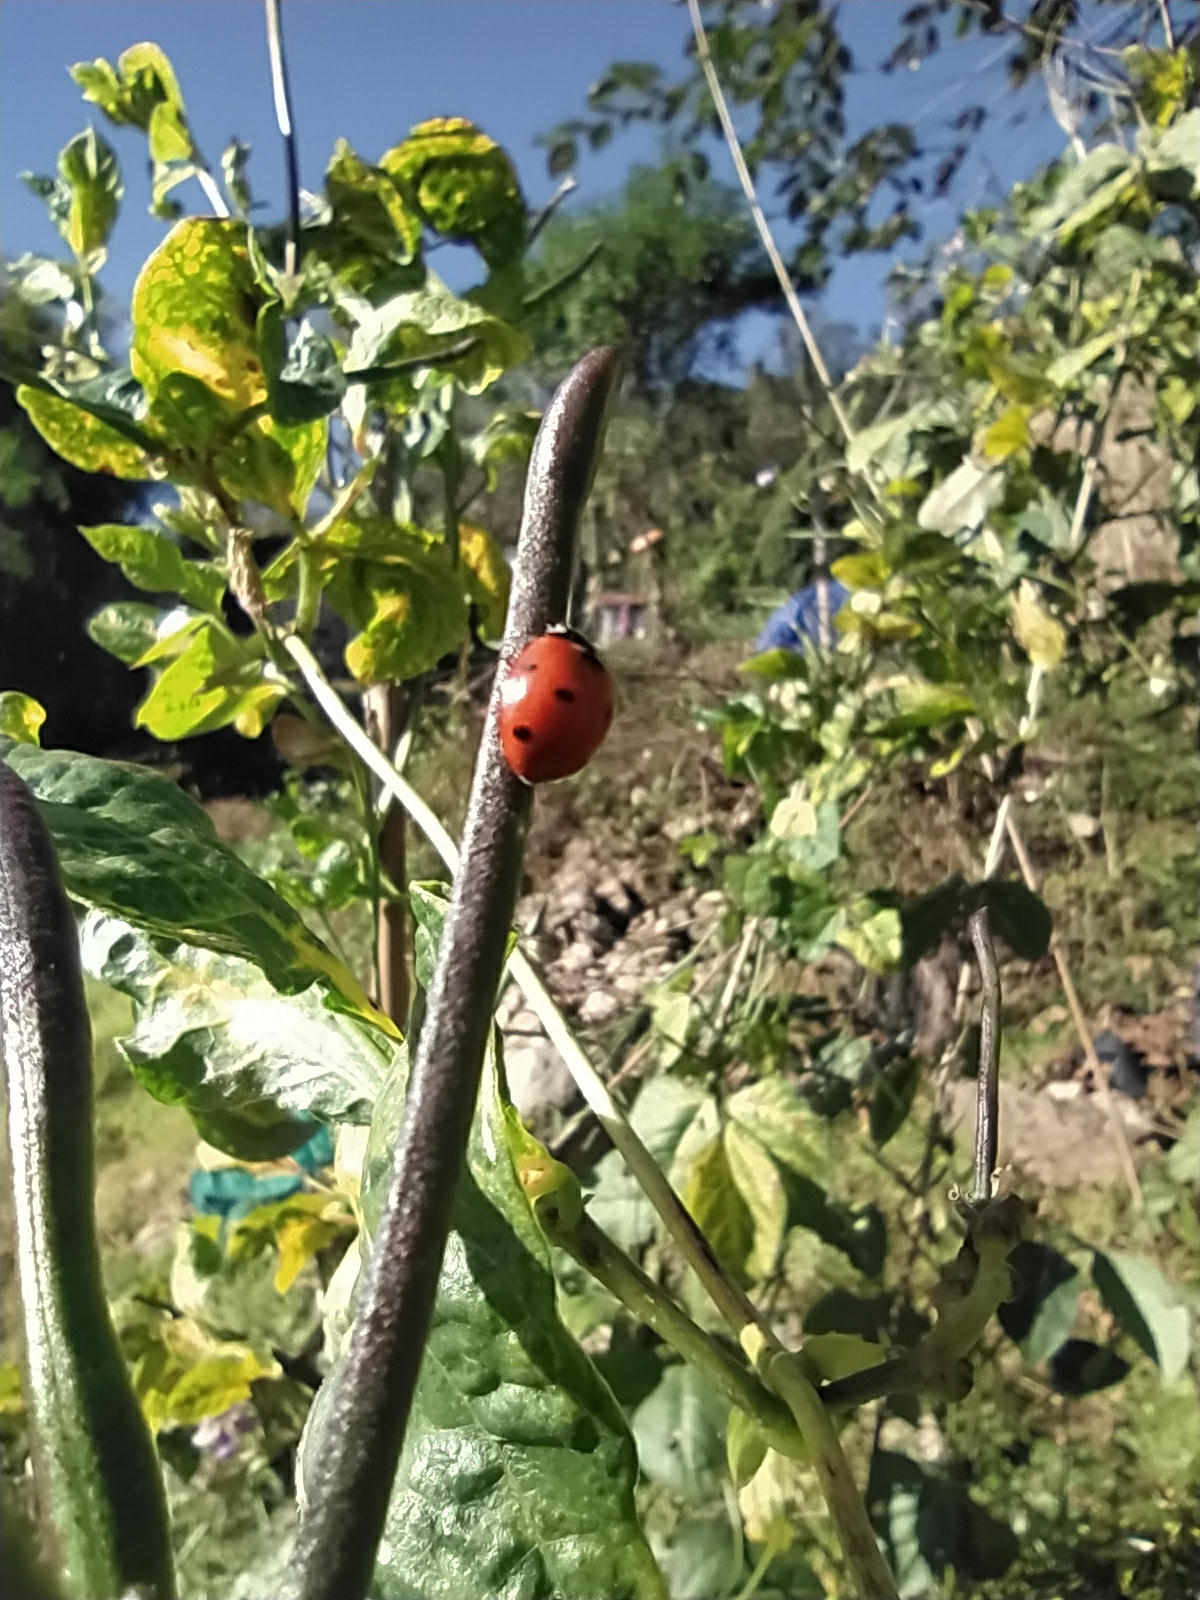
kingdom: Animalia
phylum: Arthropoda
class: Insecta
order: Coleoptera
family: Coccinellidae
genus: Coccinella
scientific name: Coccinella septempunctata
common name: Sevenspotted lady beetle
